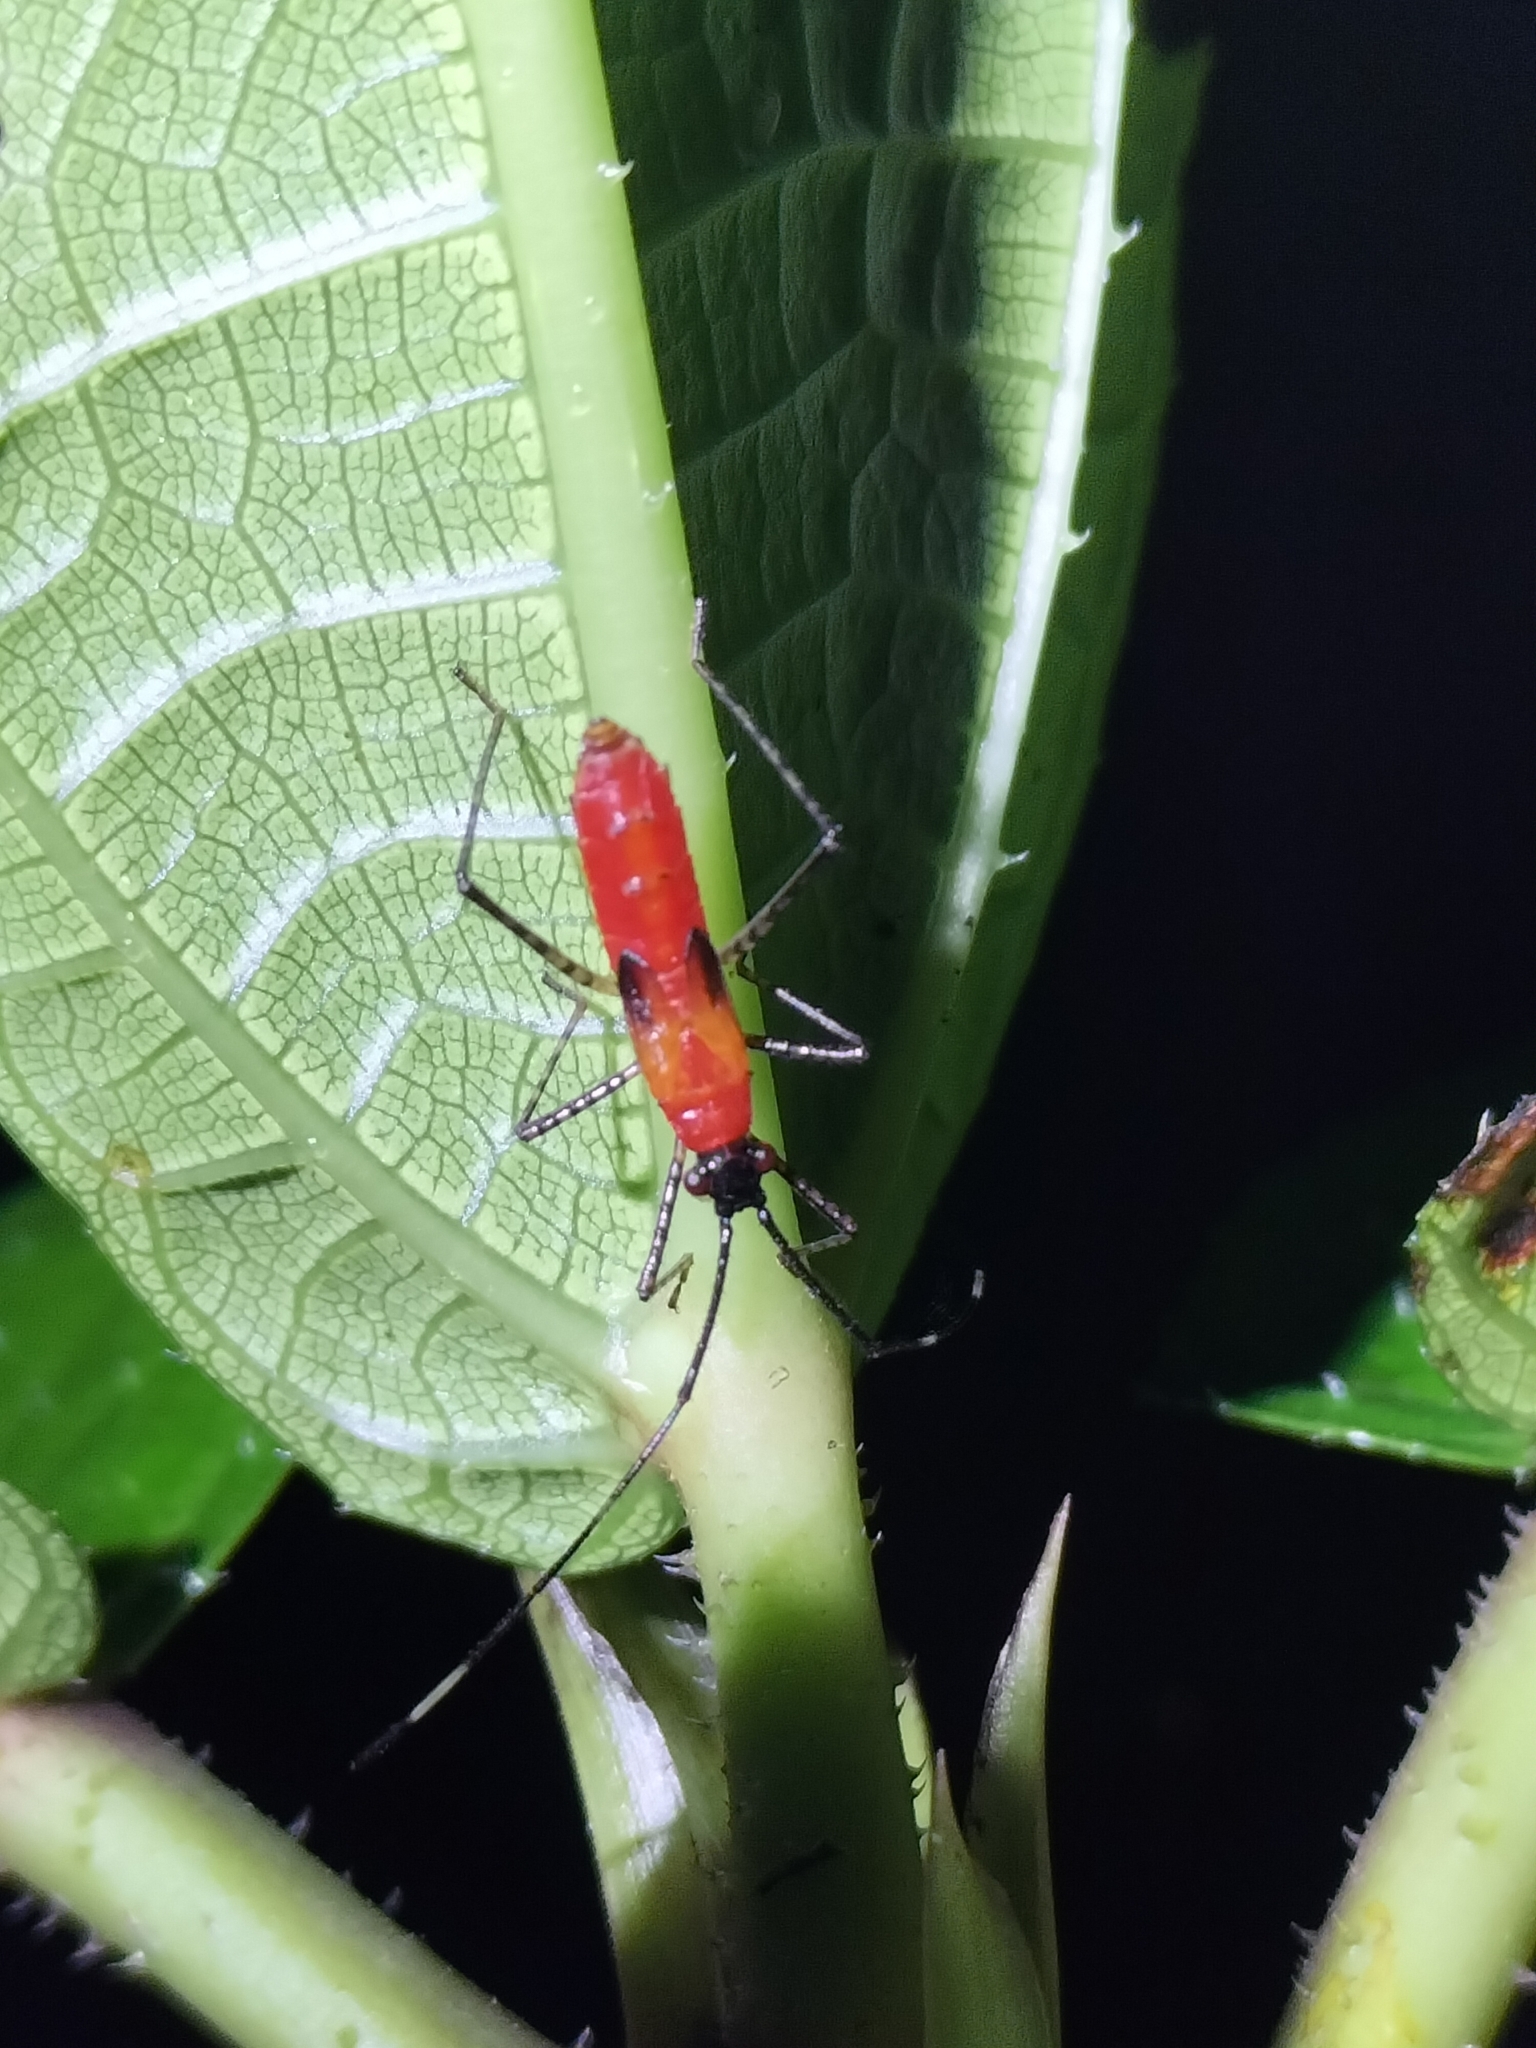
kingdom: Animalia
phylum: Arthropoda
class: Insecta
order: Hemiptera
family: Coreidae
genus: Jalina
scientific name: Jalina ocularis
